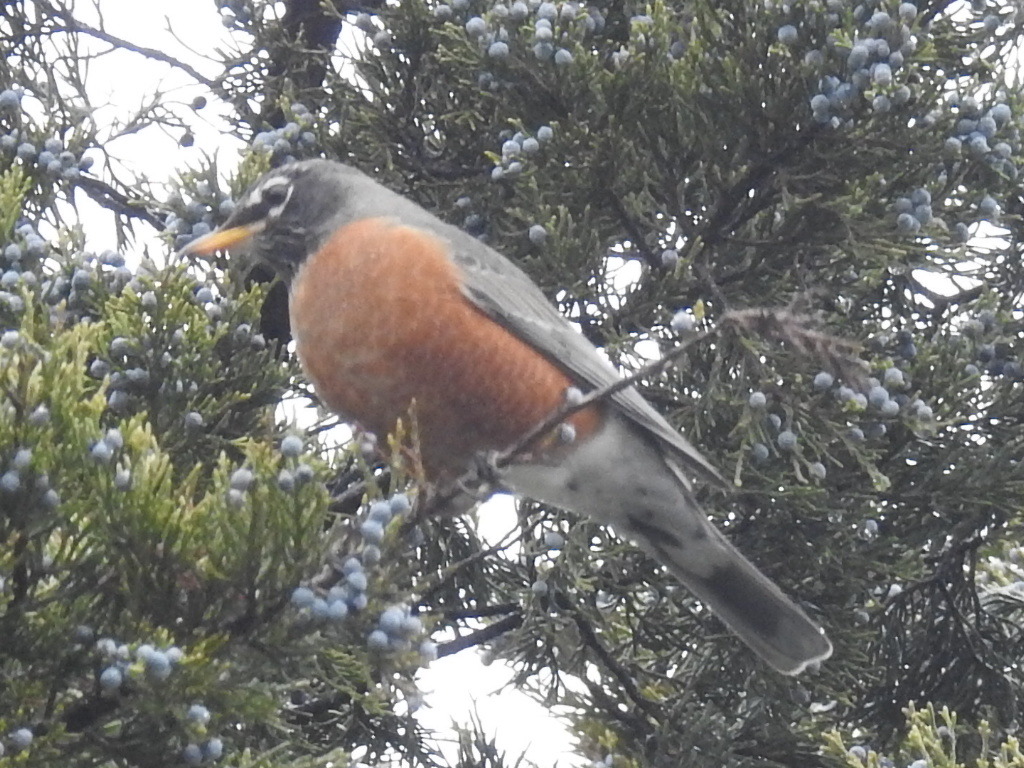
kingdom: Animalia
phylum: Chordata
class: Aves
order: Passeriformes
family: Turdidae
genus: Turdus
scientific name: Turdus migratorius
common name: American robin
